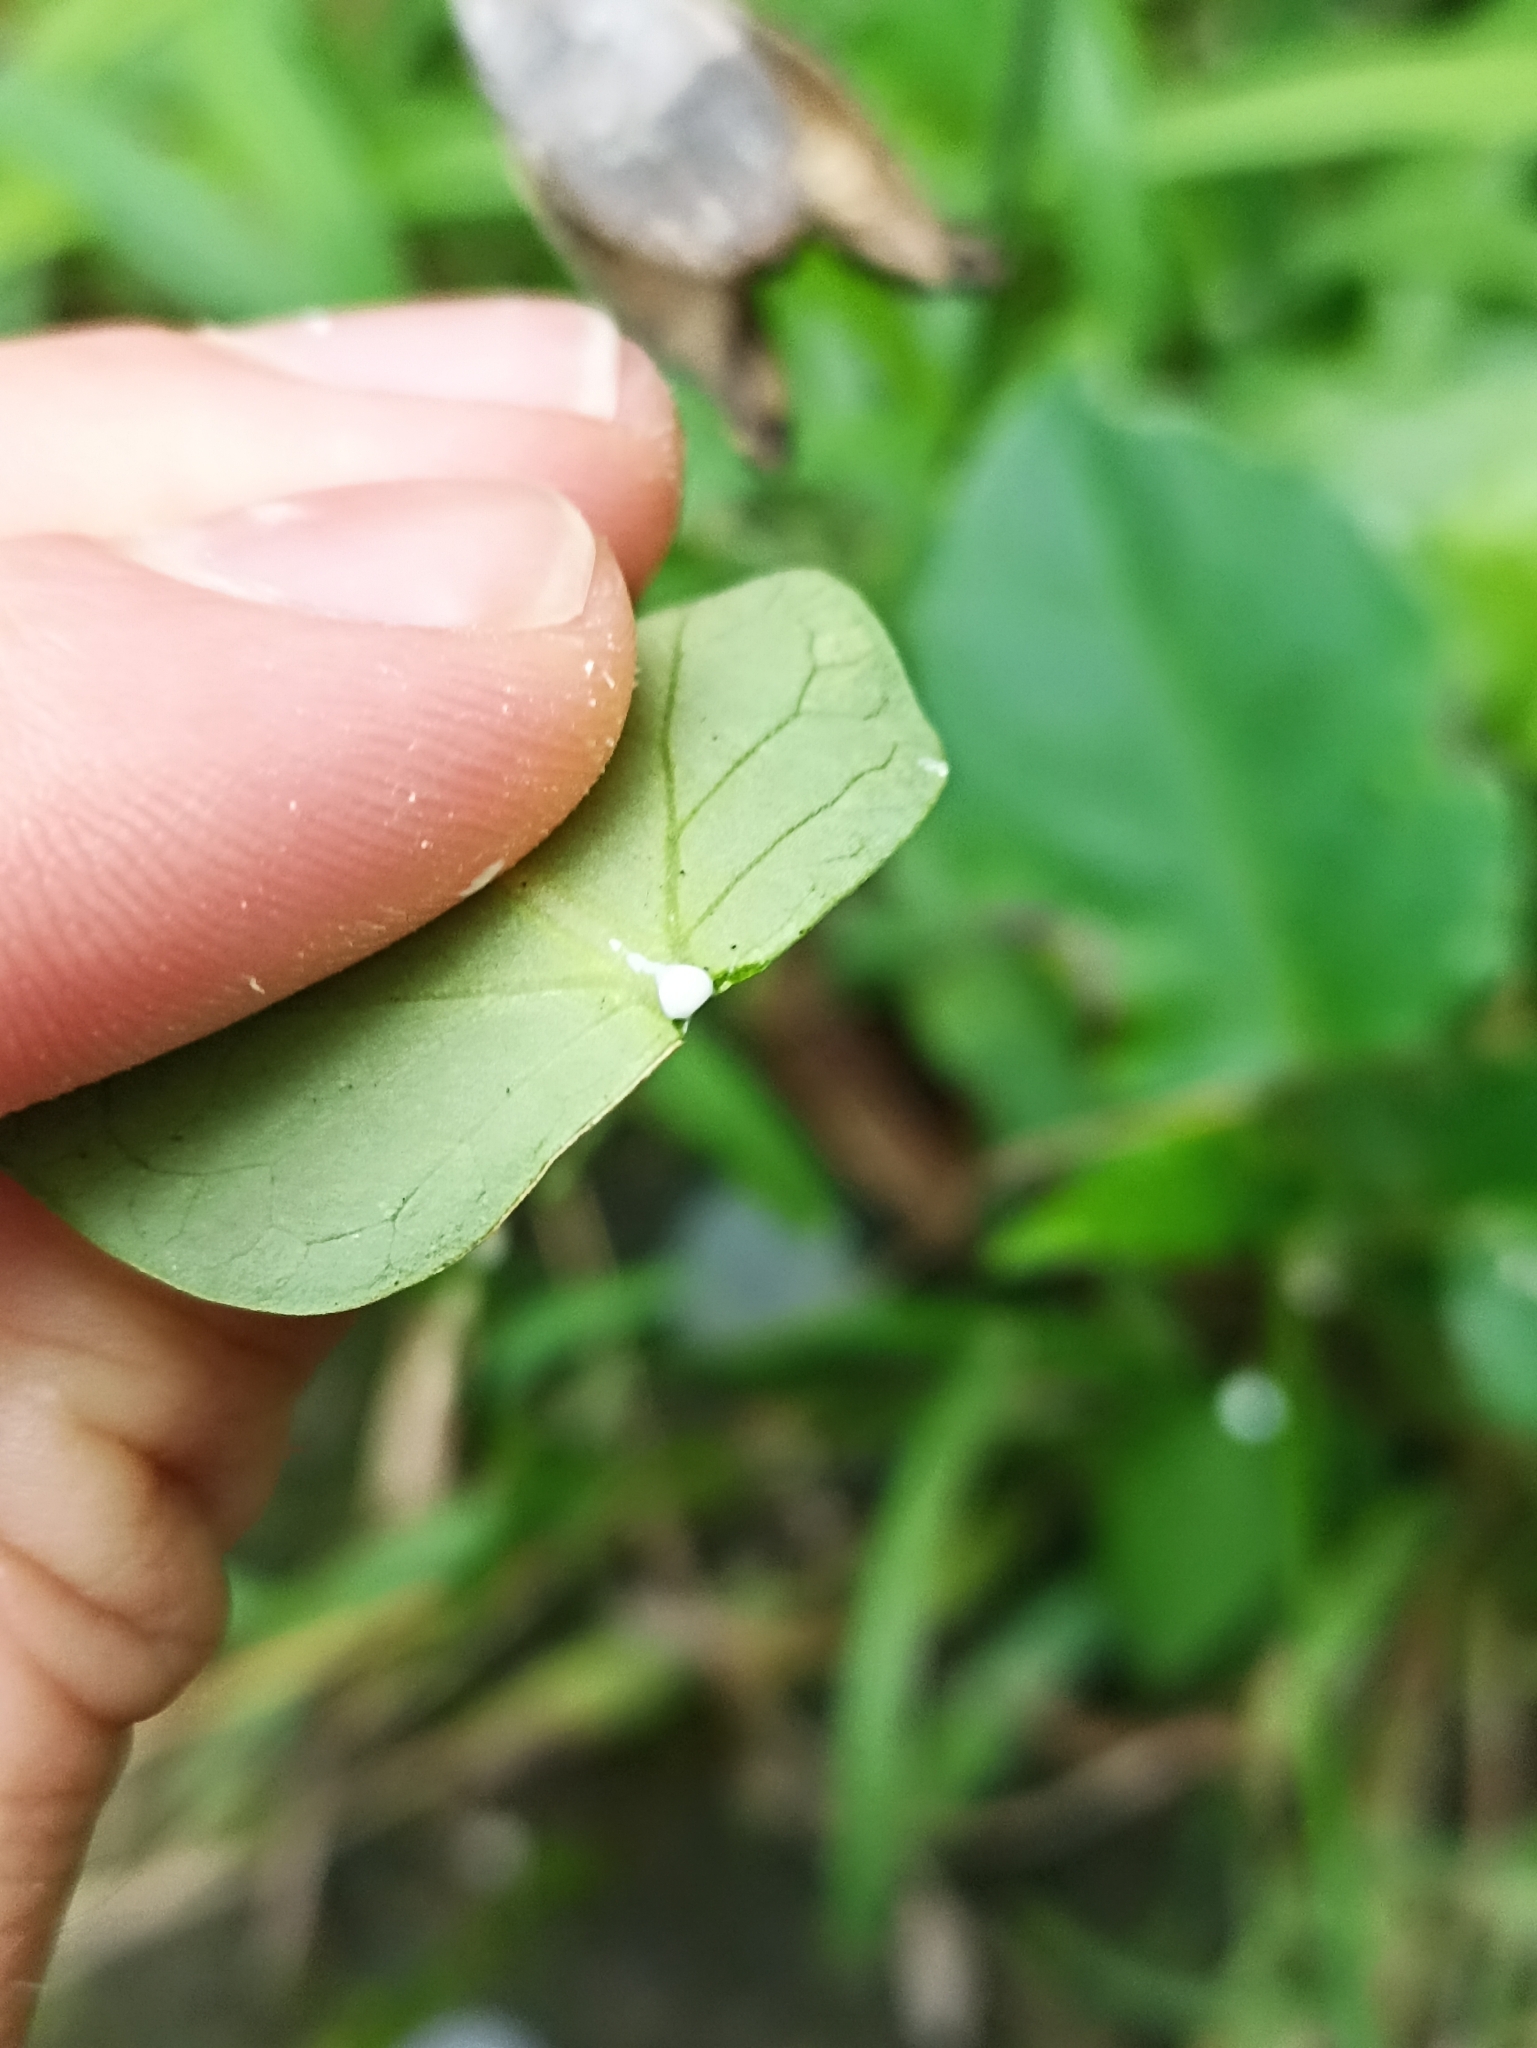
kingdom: Plantae
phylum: Tracheophyta
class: Magnoliopsida
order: Gentianales
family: Apocynaceae
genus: Araujia
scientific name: Araujia sericifera
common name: White bladderflower
